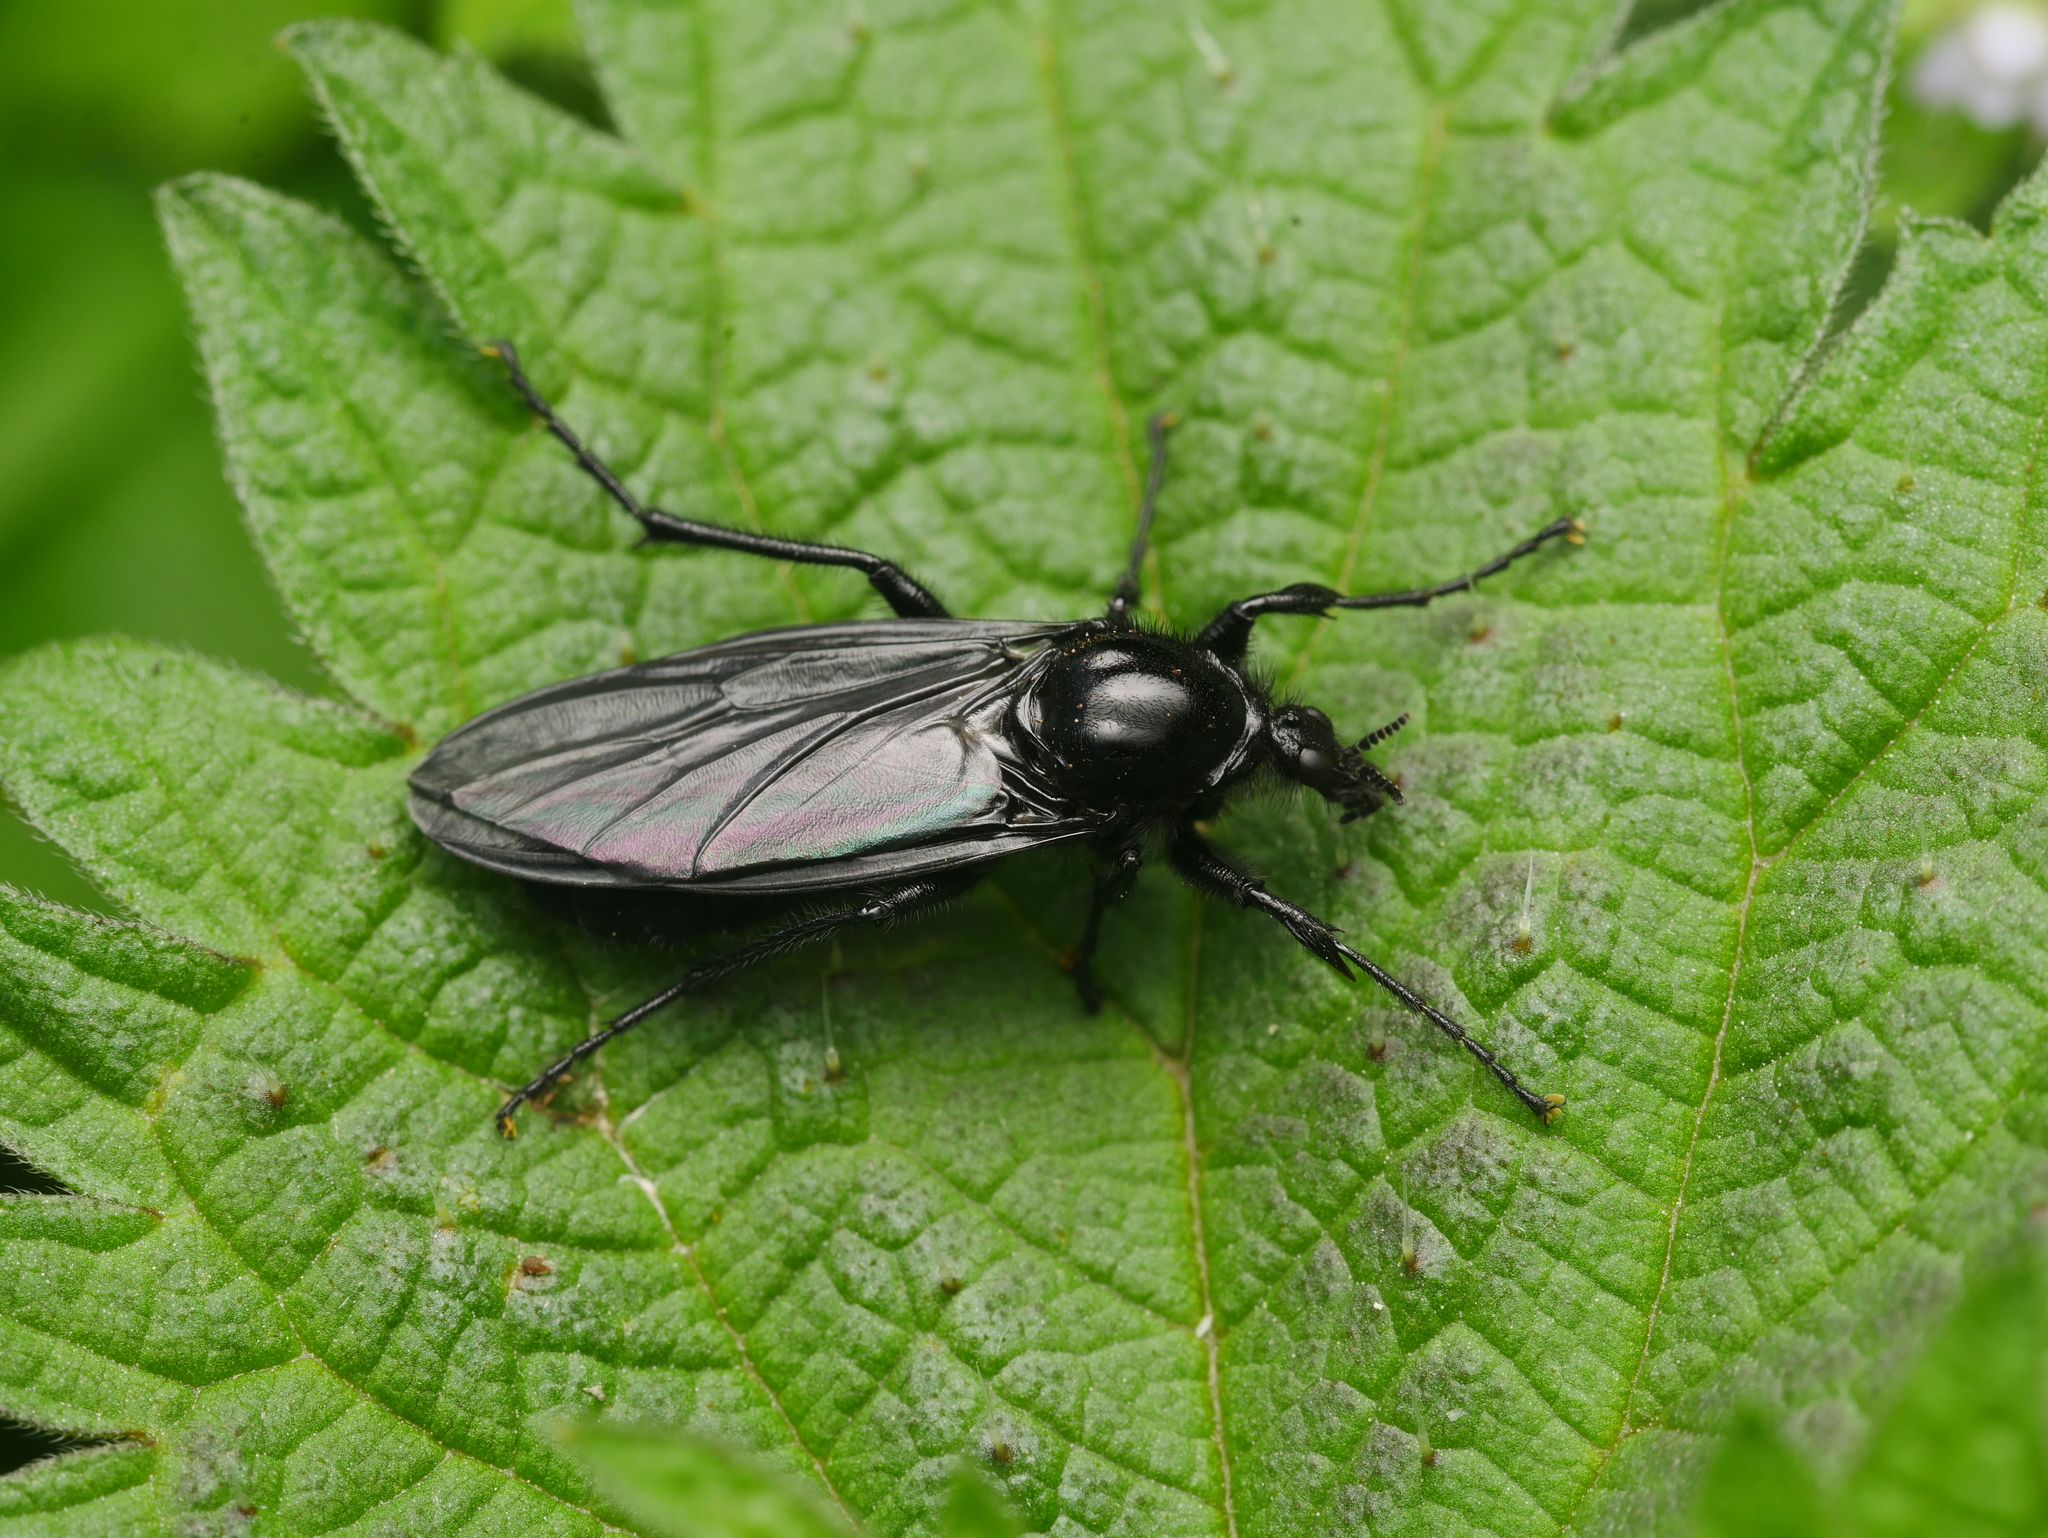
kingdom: Animalia
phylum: Arthropoda
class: Insecta
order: Diptera
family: Bibionidae
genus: Bibio
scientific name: Bibio marci
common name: St marks fly
